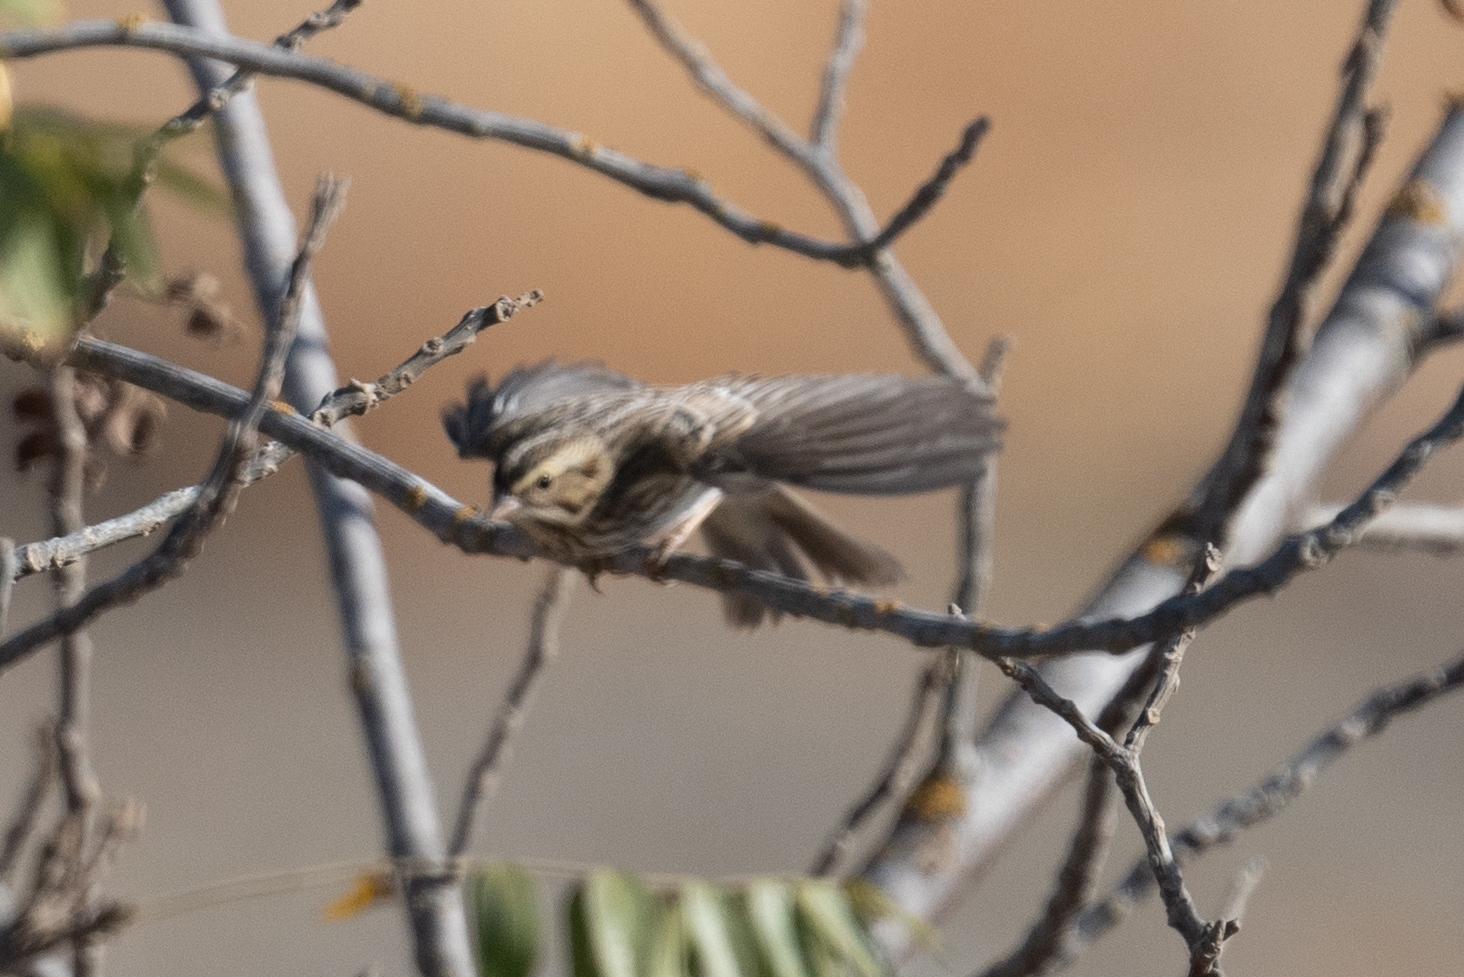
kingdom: Animalia
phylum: Chordata
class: Aves
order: Passeriformes
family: Passerellidae
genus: Passerculus
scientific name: Passerculus sandwichensis
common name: Savannah sparrow
